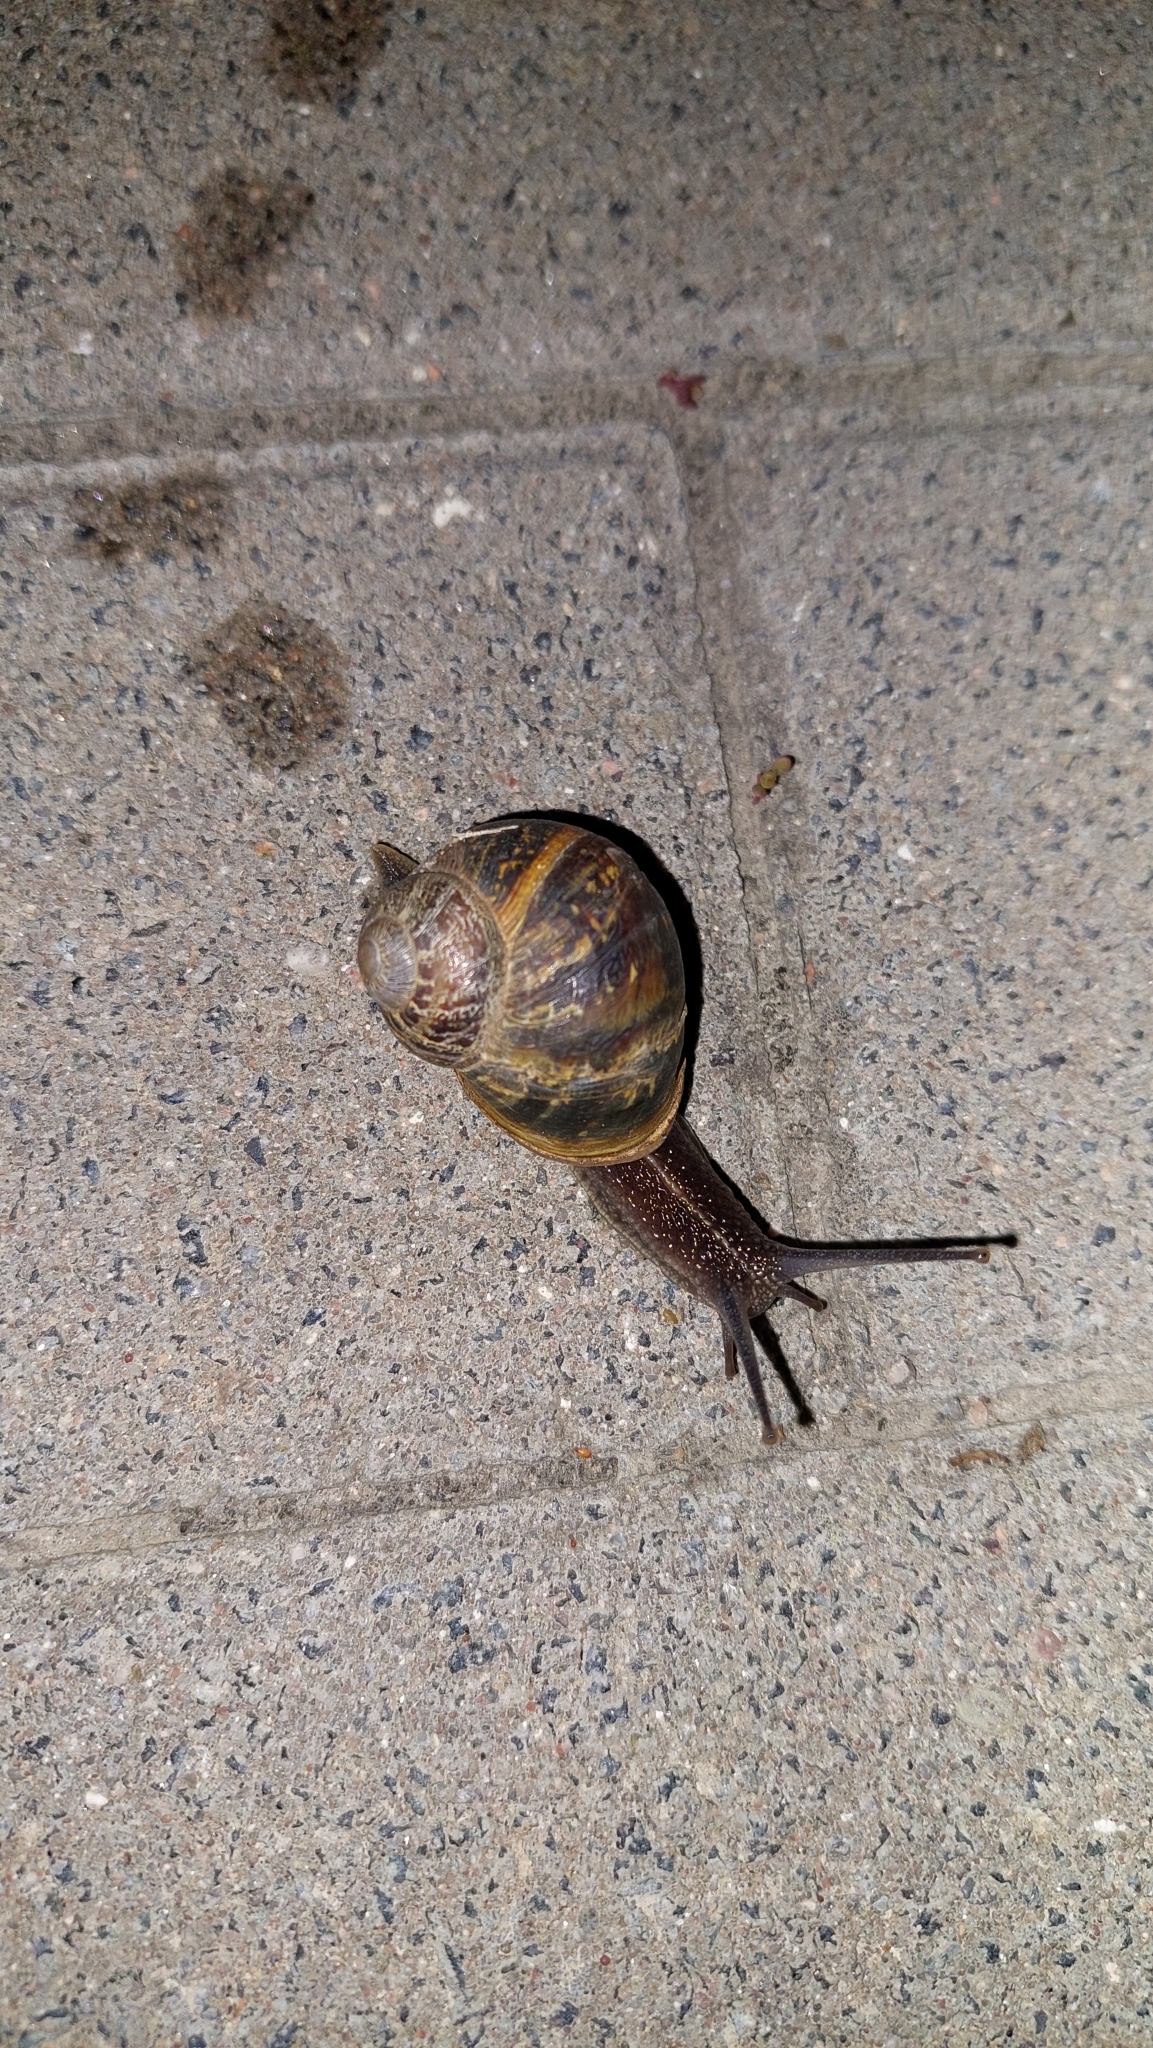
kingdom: Animalia
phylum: Mollusca
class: Gastropoda
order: Stylommatophora
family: Helicidae
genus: Cornu
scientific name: Cornu aspersum
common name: Brown garden snail
